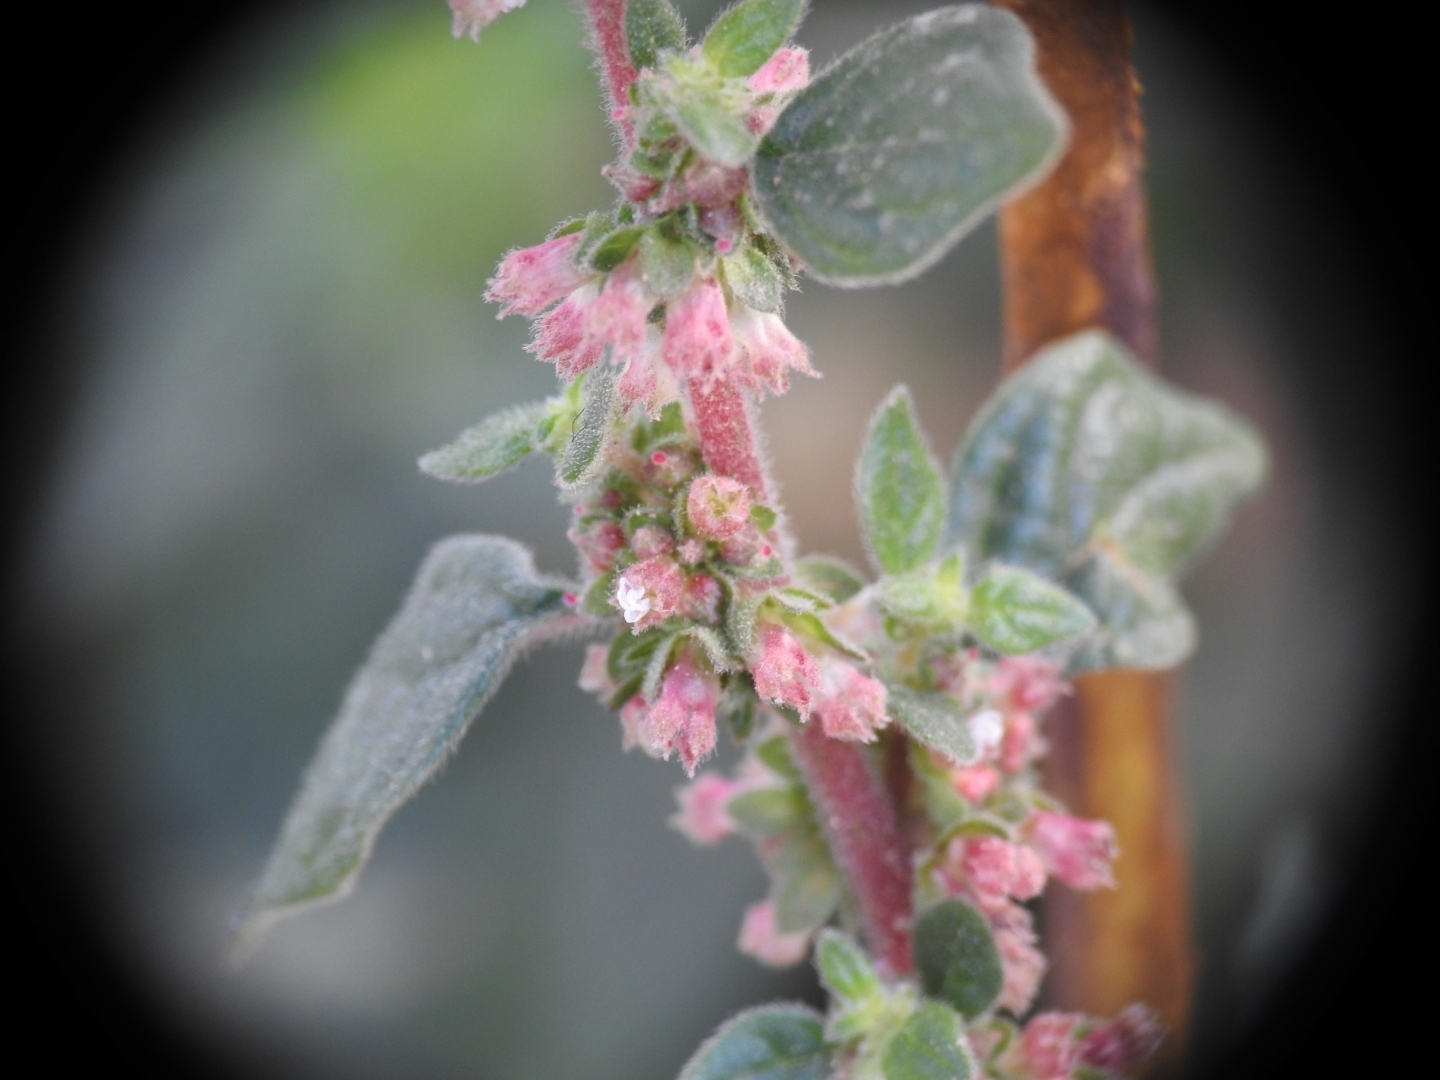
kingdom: Plantae
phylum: Tracheophyta
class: Magnoliopsida
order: Rosales
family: Urticaceae
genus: Parietaria
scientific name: Parietaria judaica
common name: Pellitory-of-the-wall
